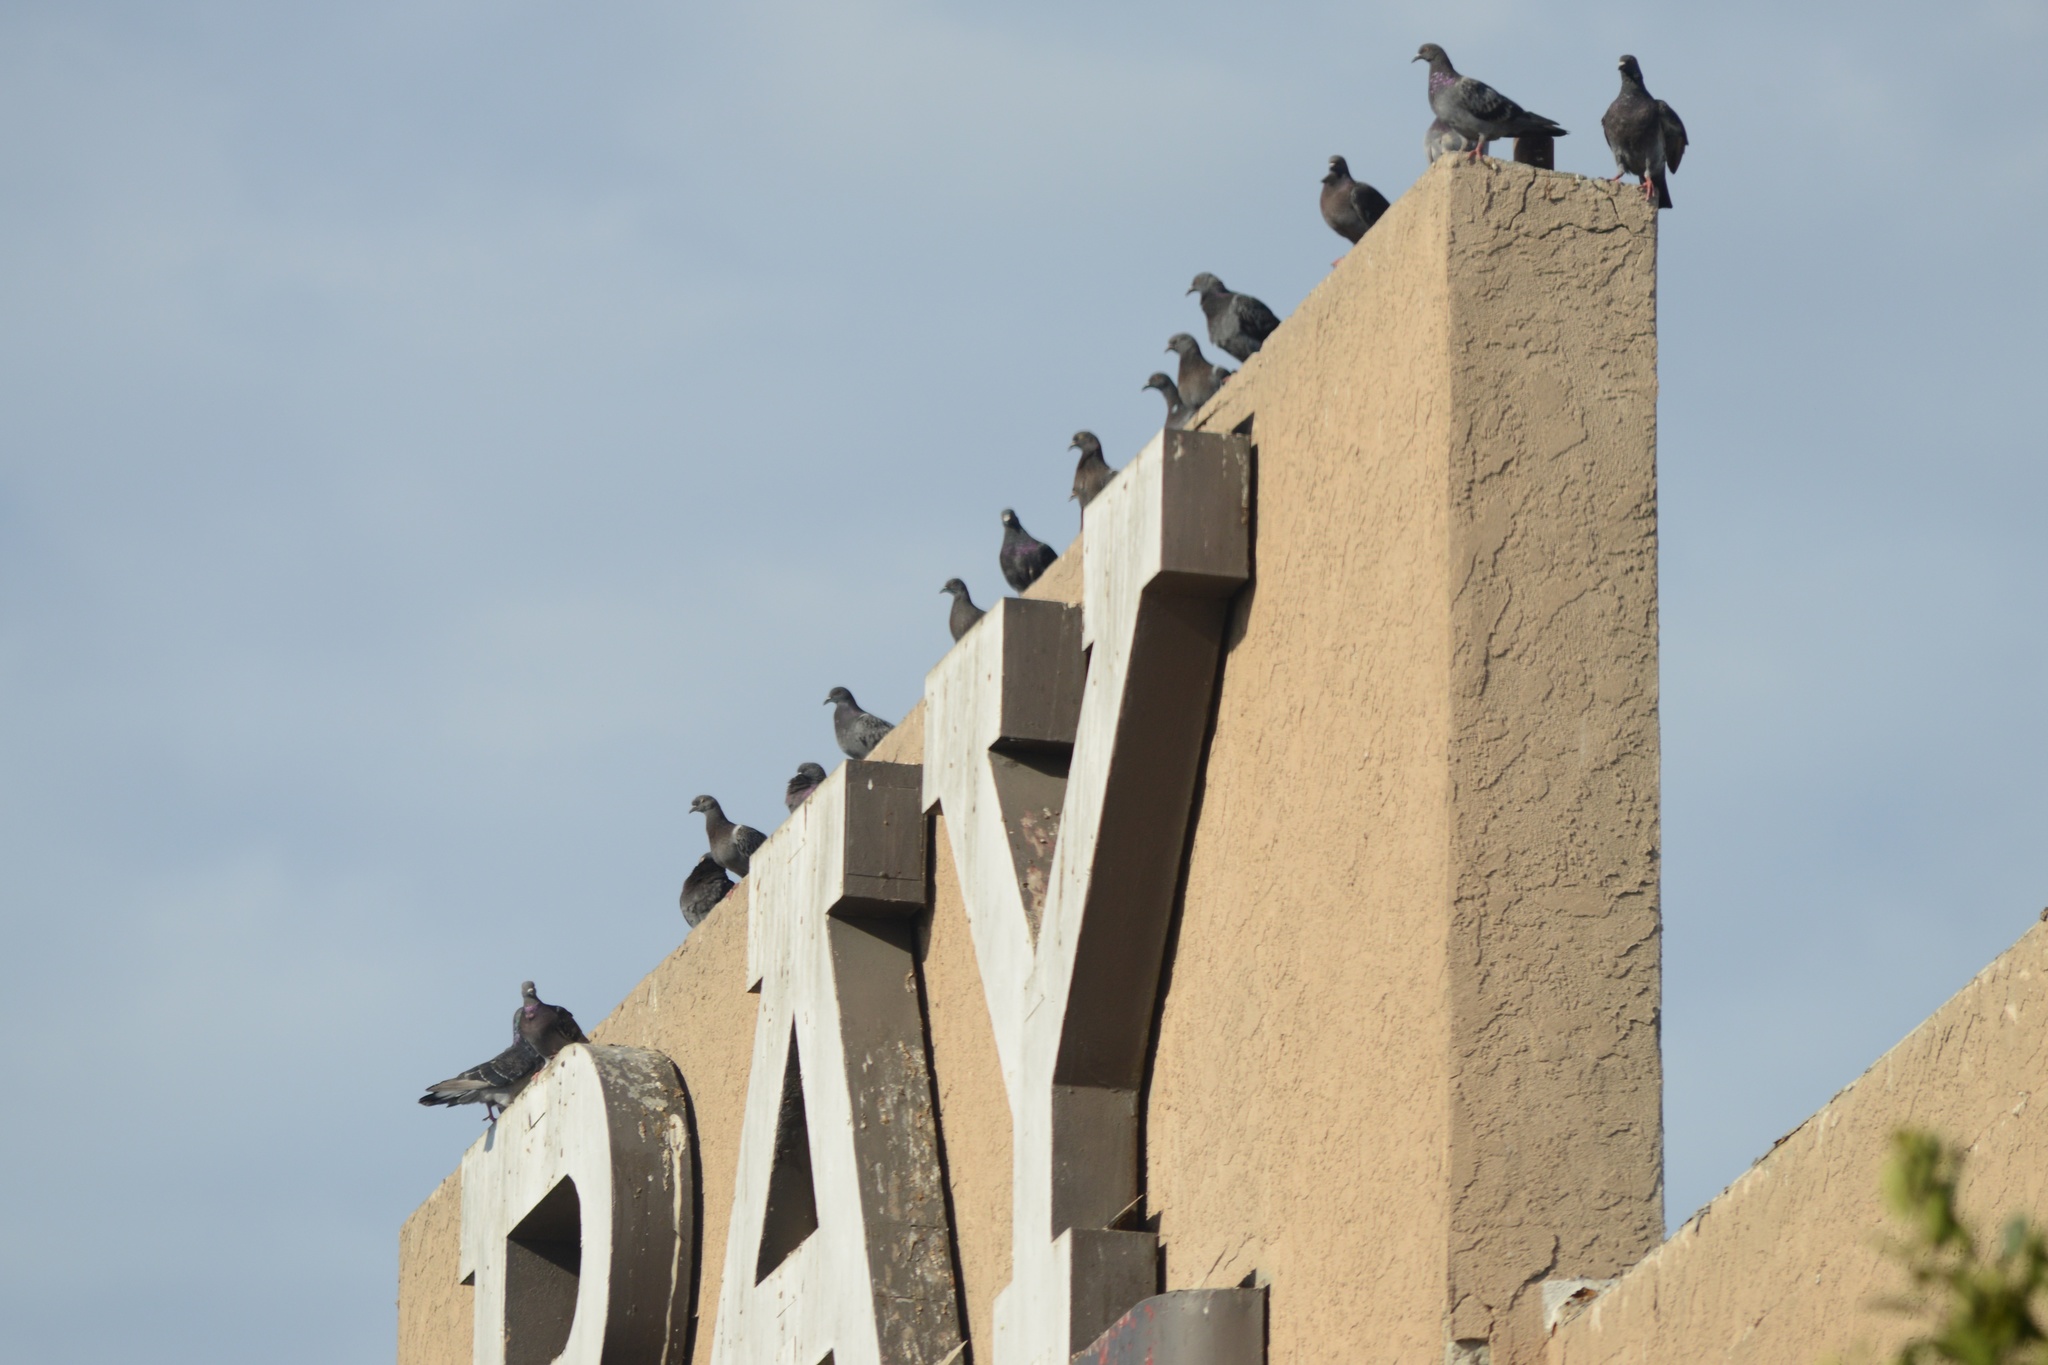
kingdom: Animalia
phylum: Chordata
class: Aves
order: Columbiformes
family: Columbidae
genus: Columba
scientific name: Columba livia
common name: Rock pigeon
